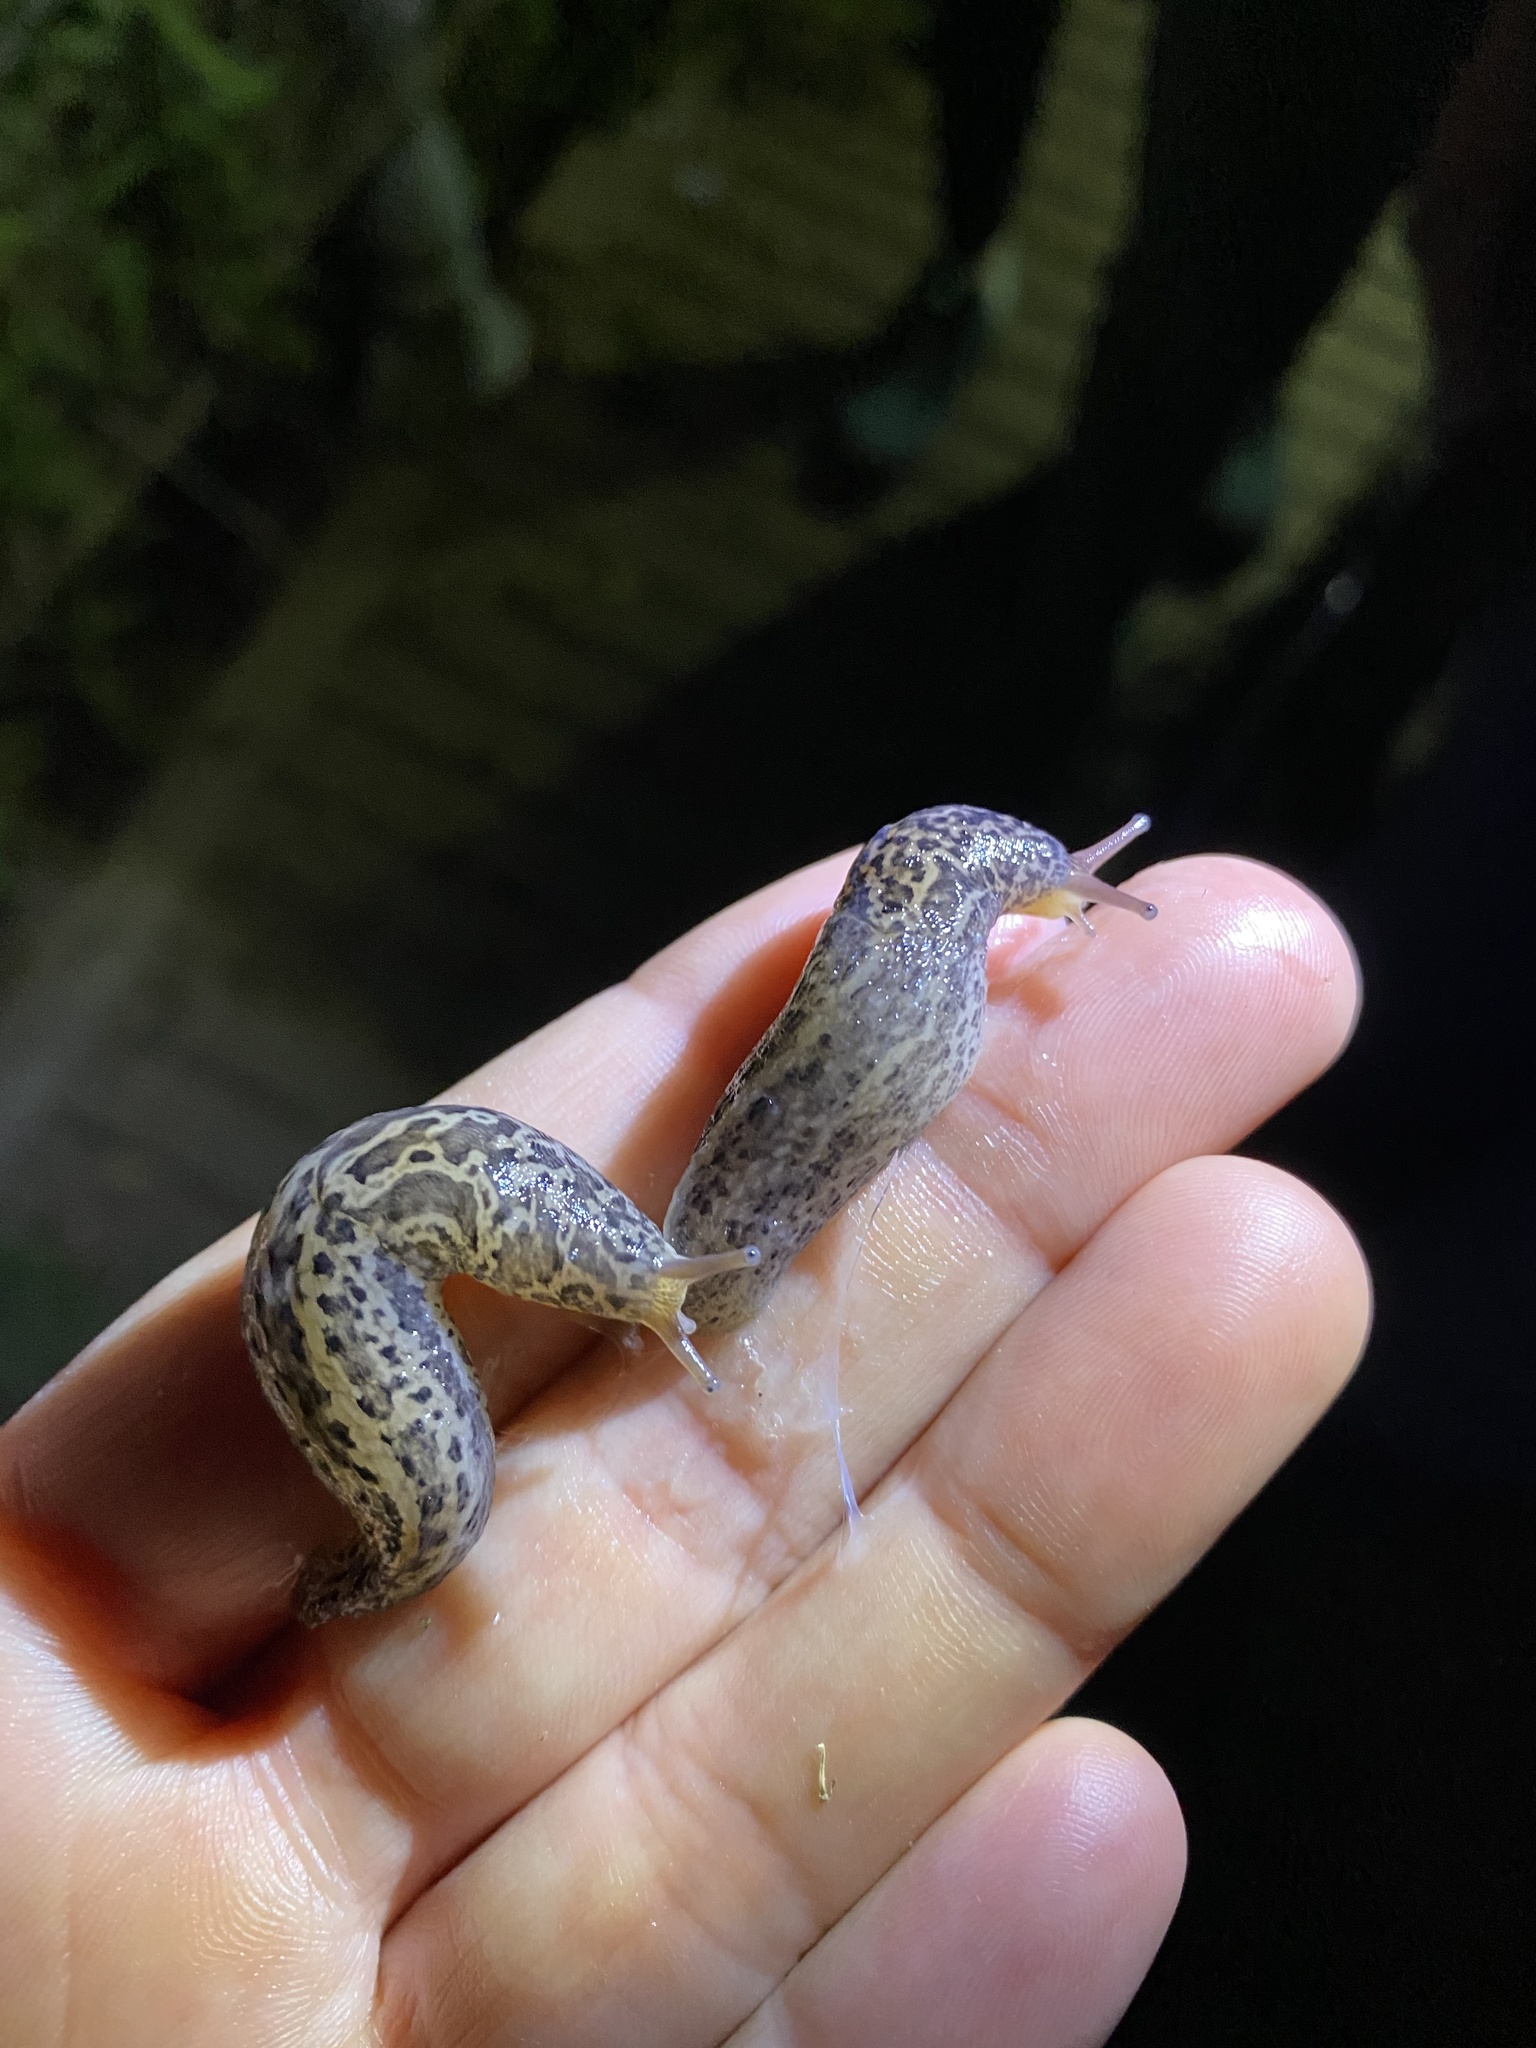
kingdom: Animalia
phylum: Mollusca
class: Gastropoda
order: Stylommatophora
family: Limacidae
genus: Limax
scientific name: Limax maximus
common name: Great grey slug
